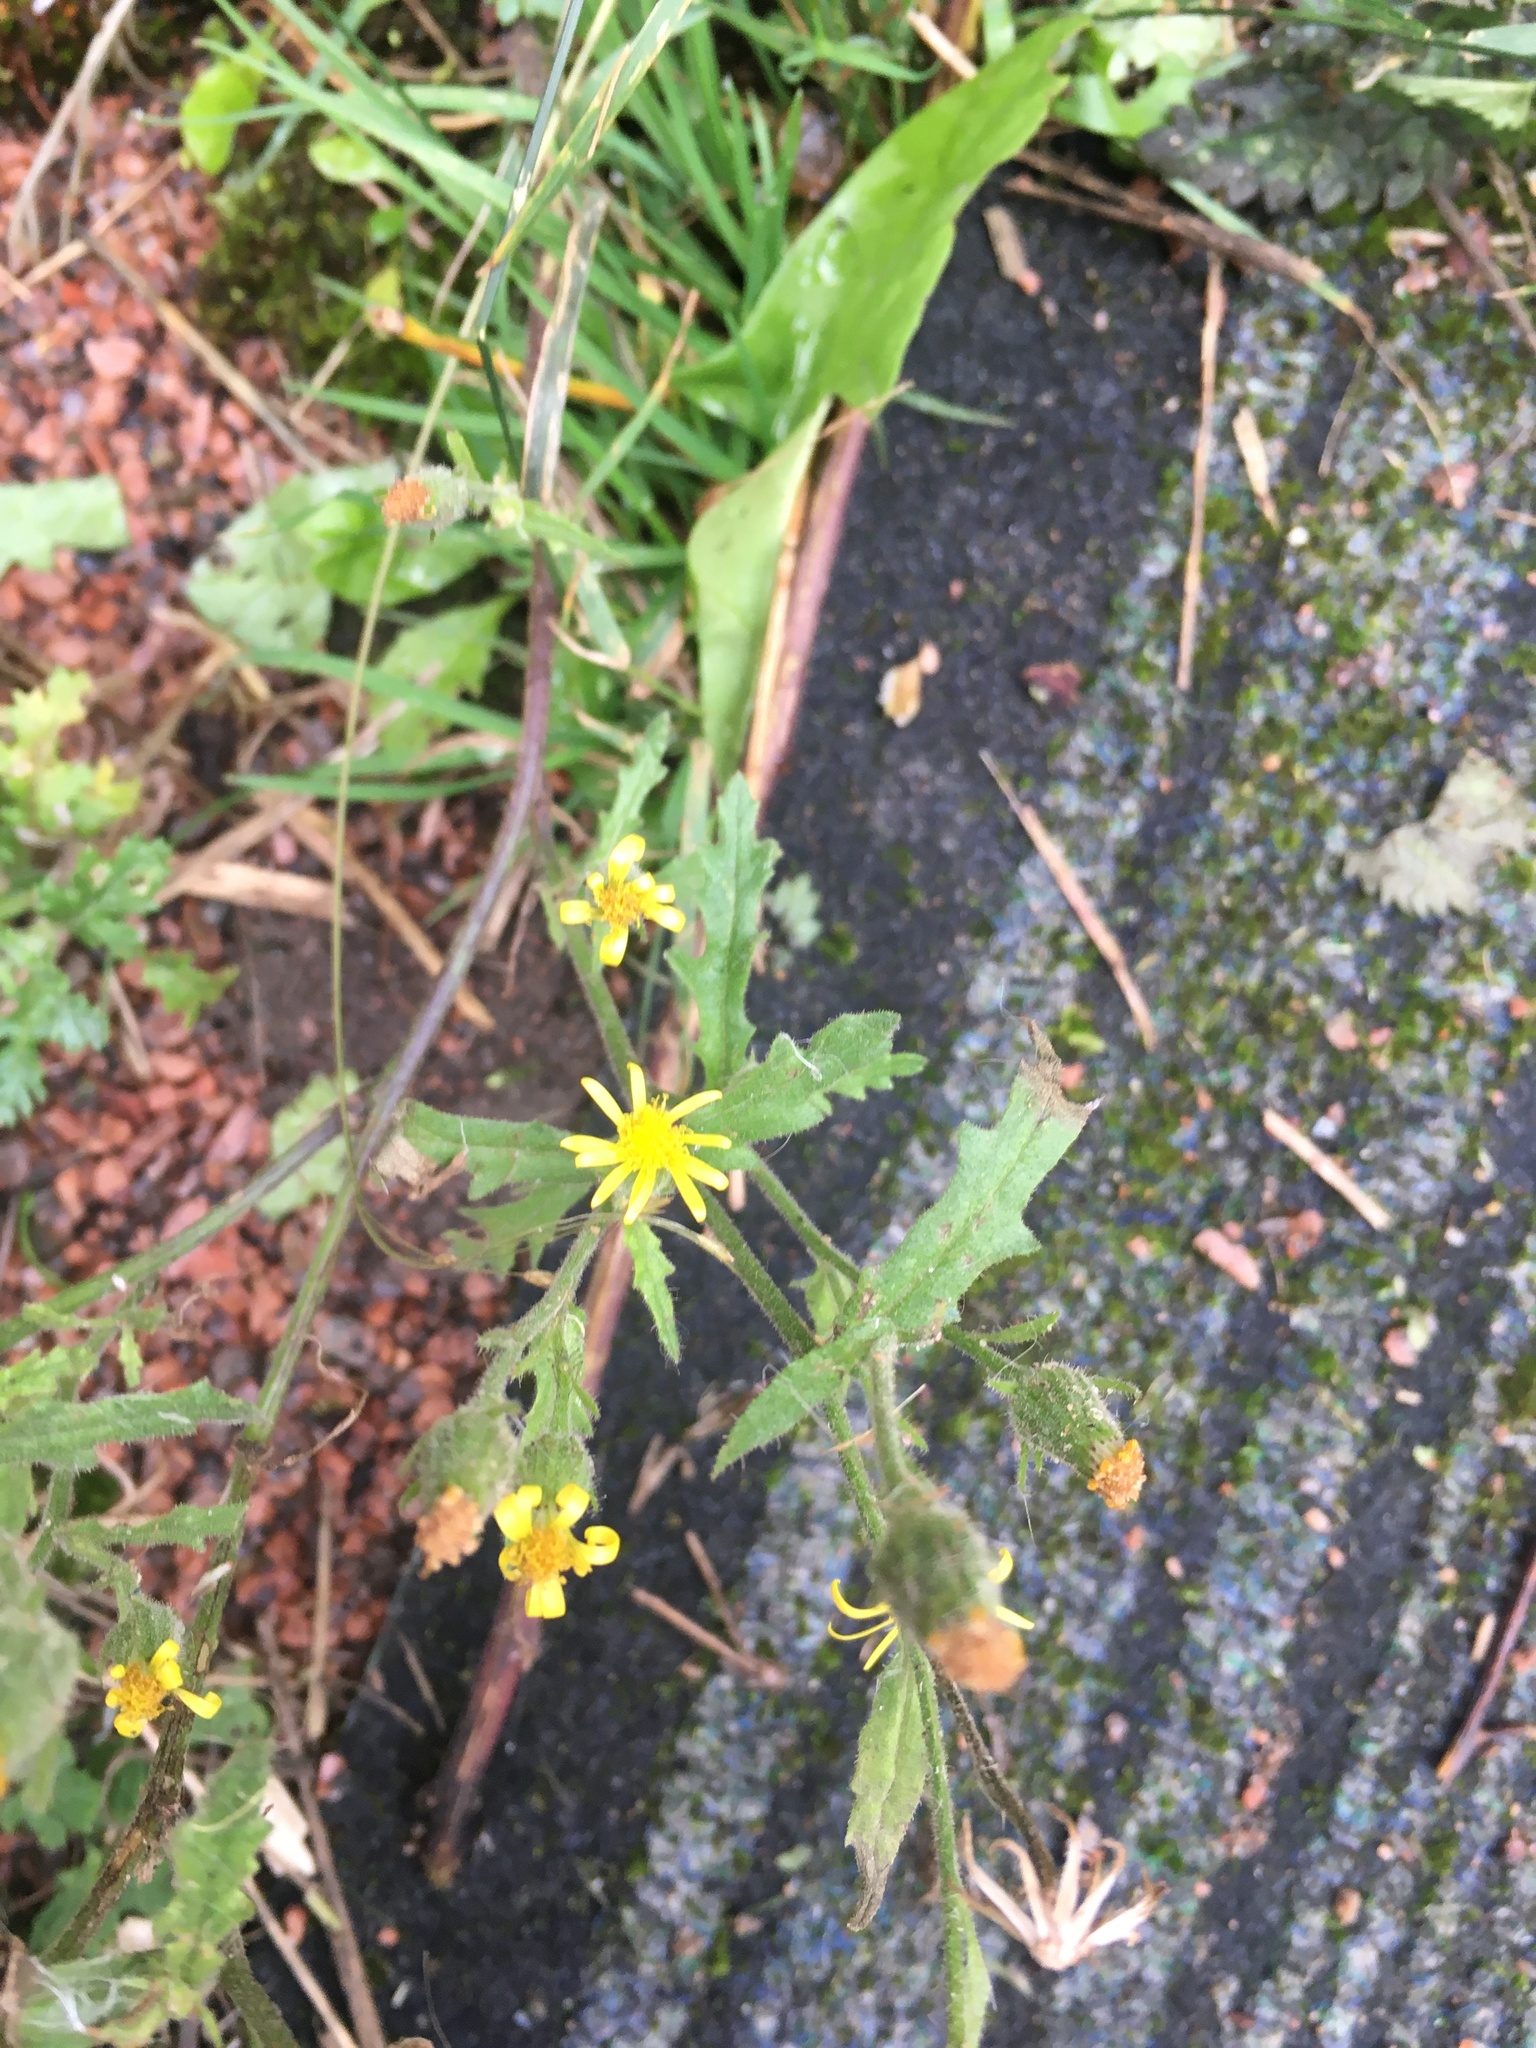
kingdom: Plantae
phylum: Tracheophyta
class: Magnoliopsida
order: Asterales
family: Asteraceae
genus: Senecio
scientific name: Senecio viscosus
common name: Sticky groundsel
